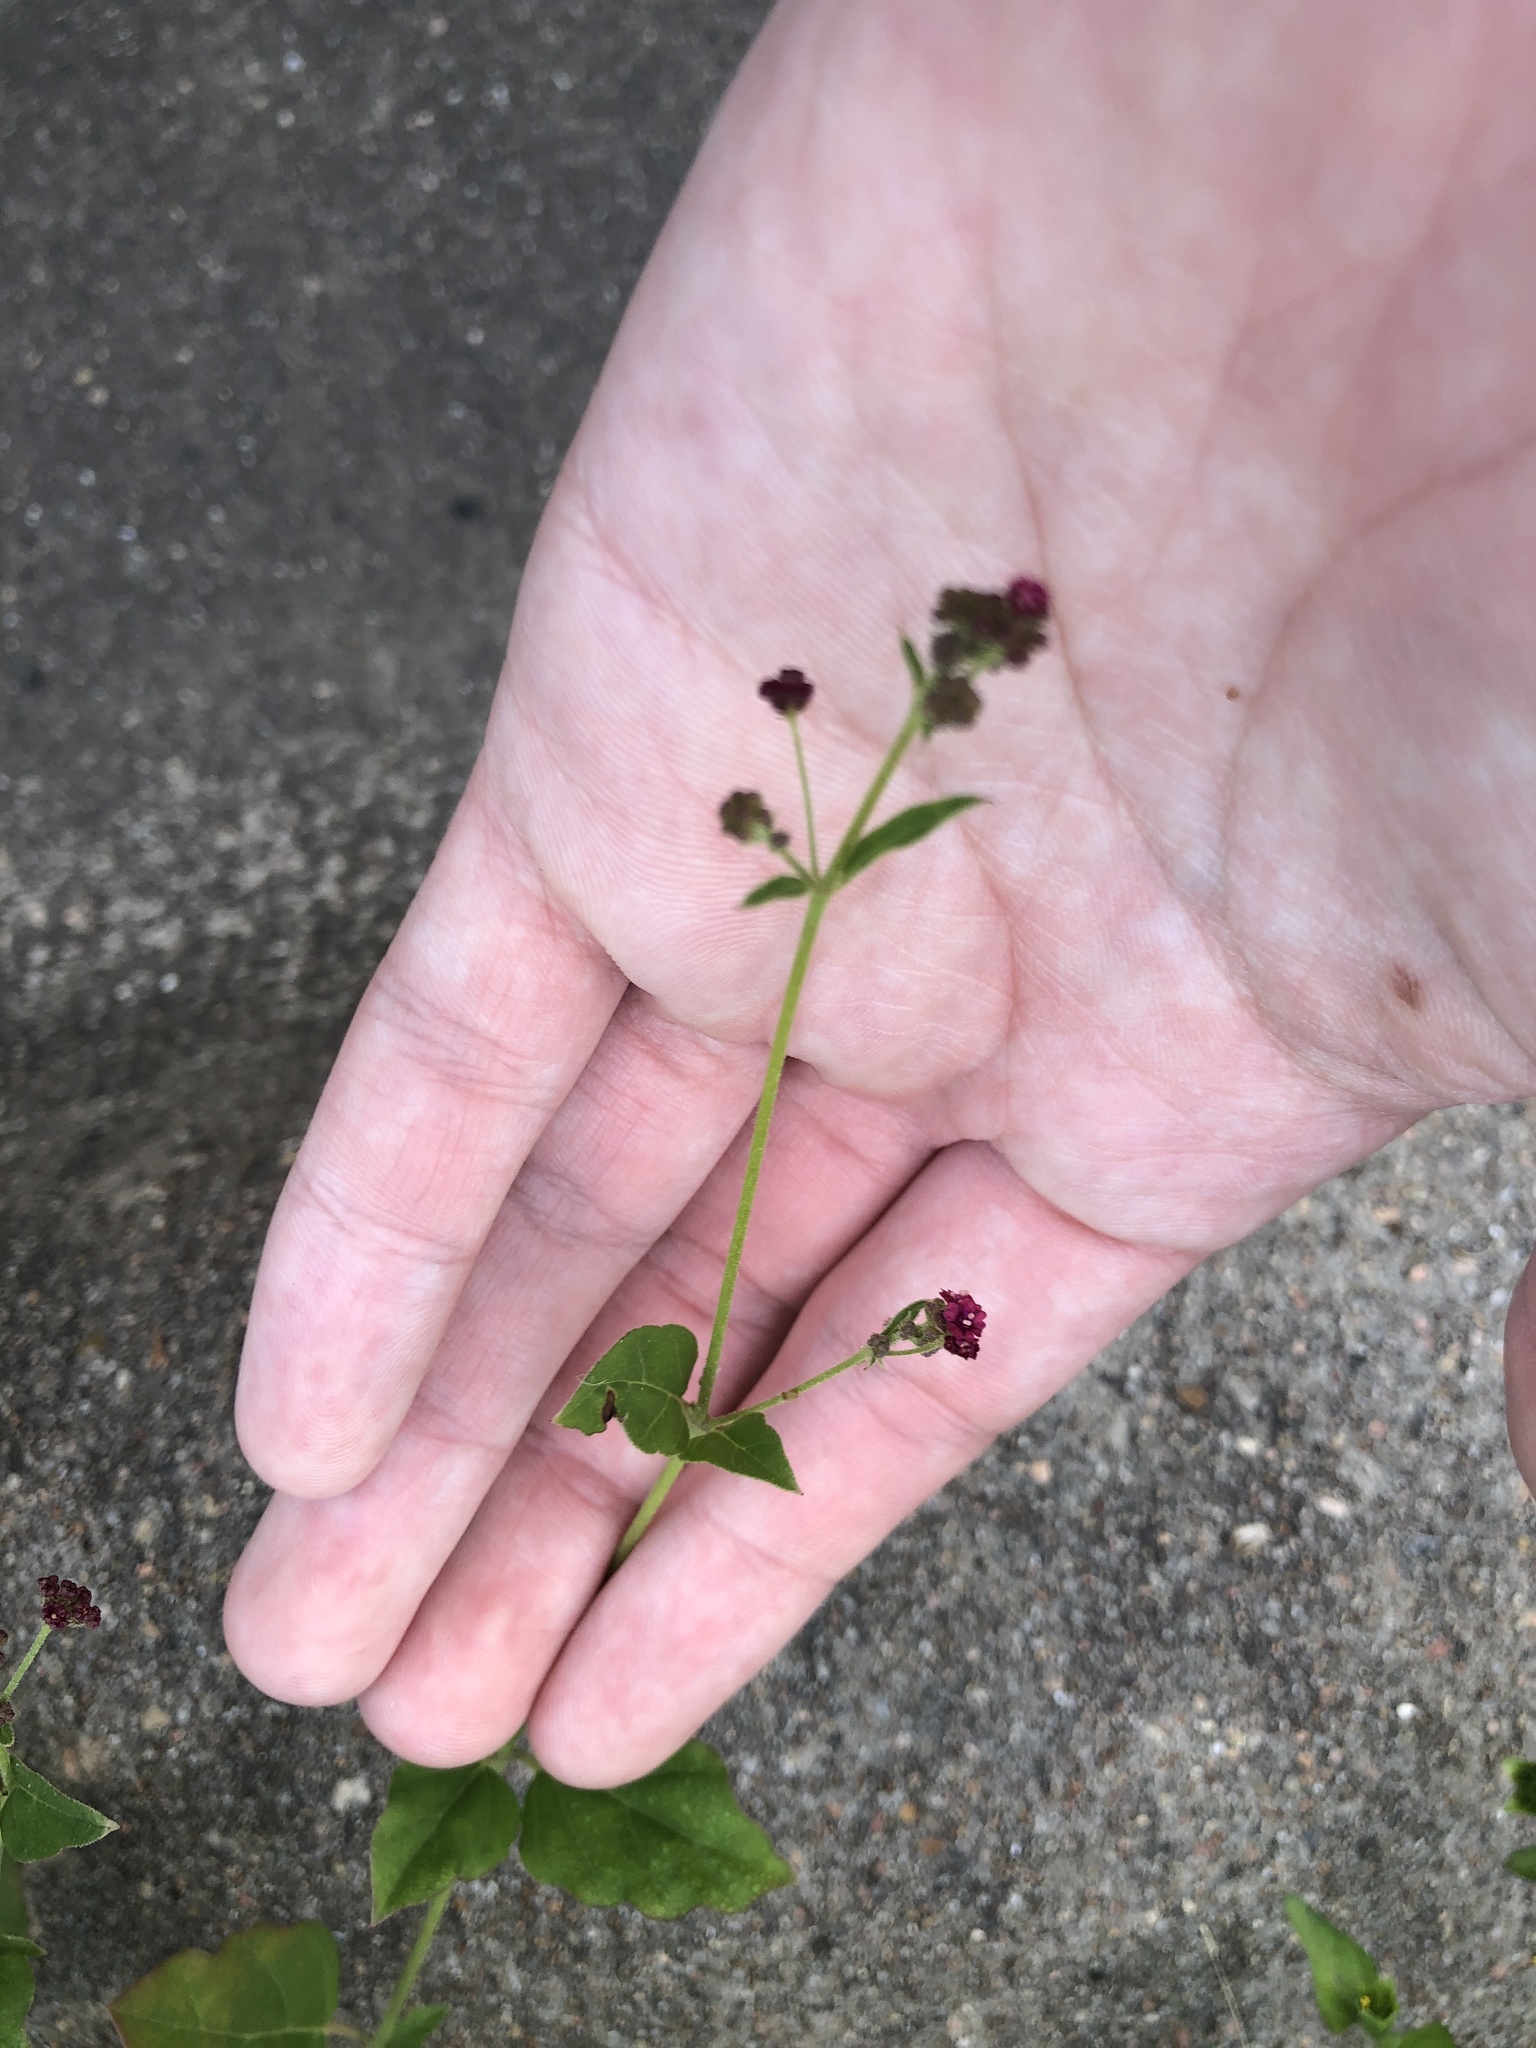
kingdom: Plantae
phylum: Tracheophyta
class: Magnoliopsida
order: Caryophyllales
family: Nyctaginaceae
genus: Boerhavia
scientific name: Boerhavia coccinea
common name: Scarlet spiderling
